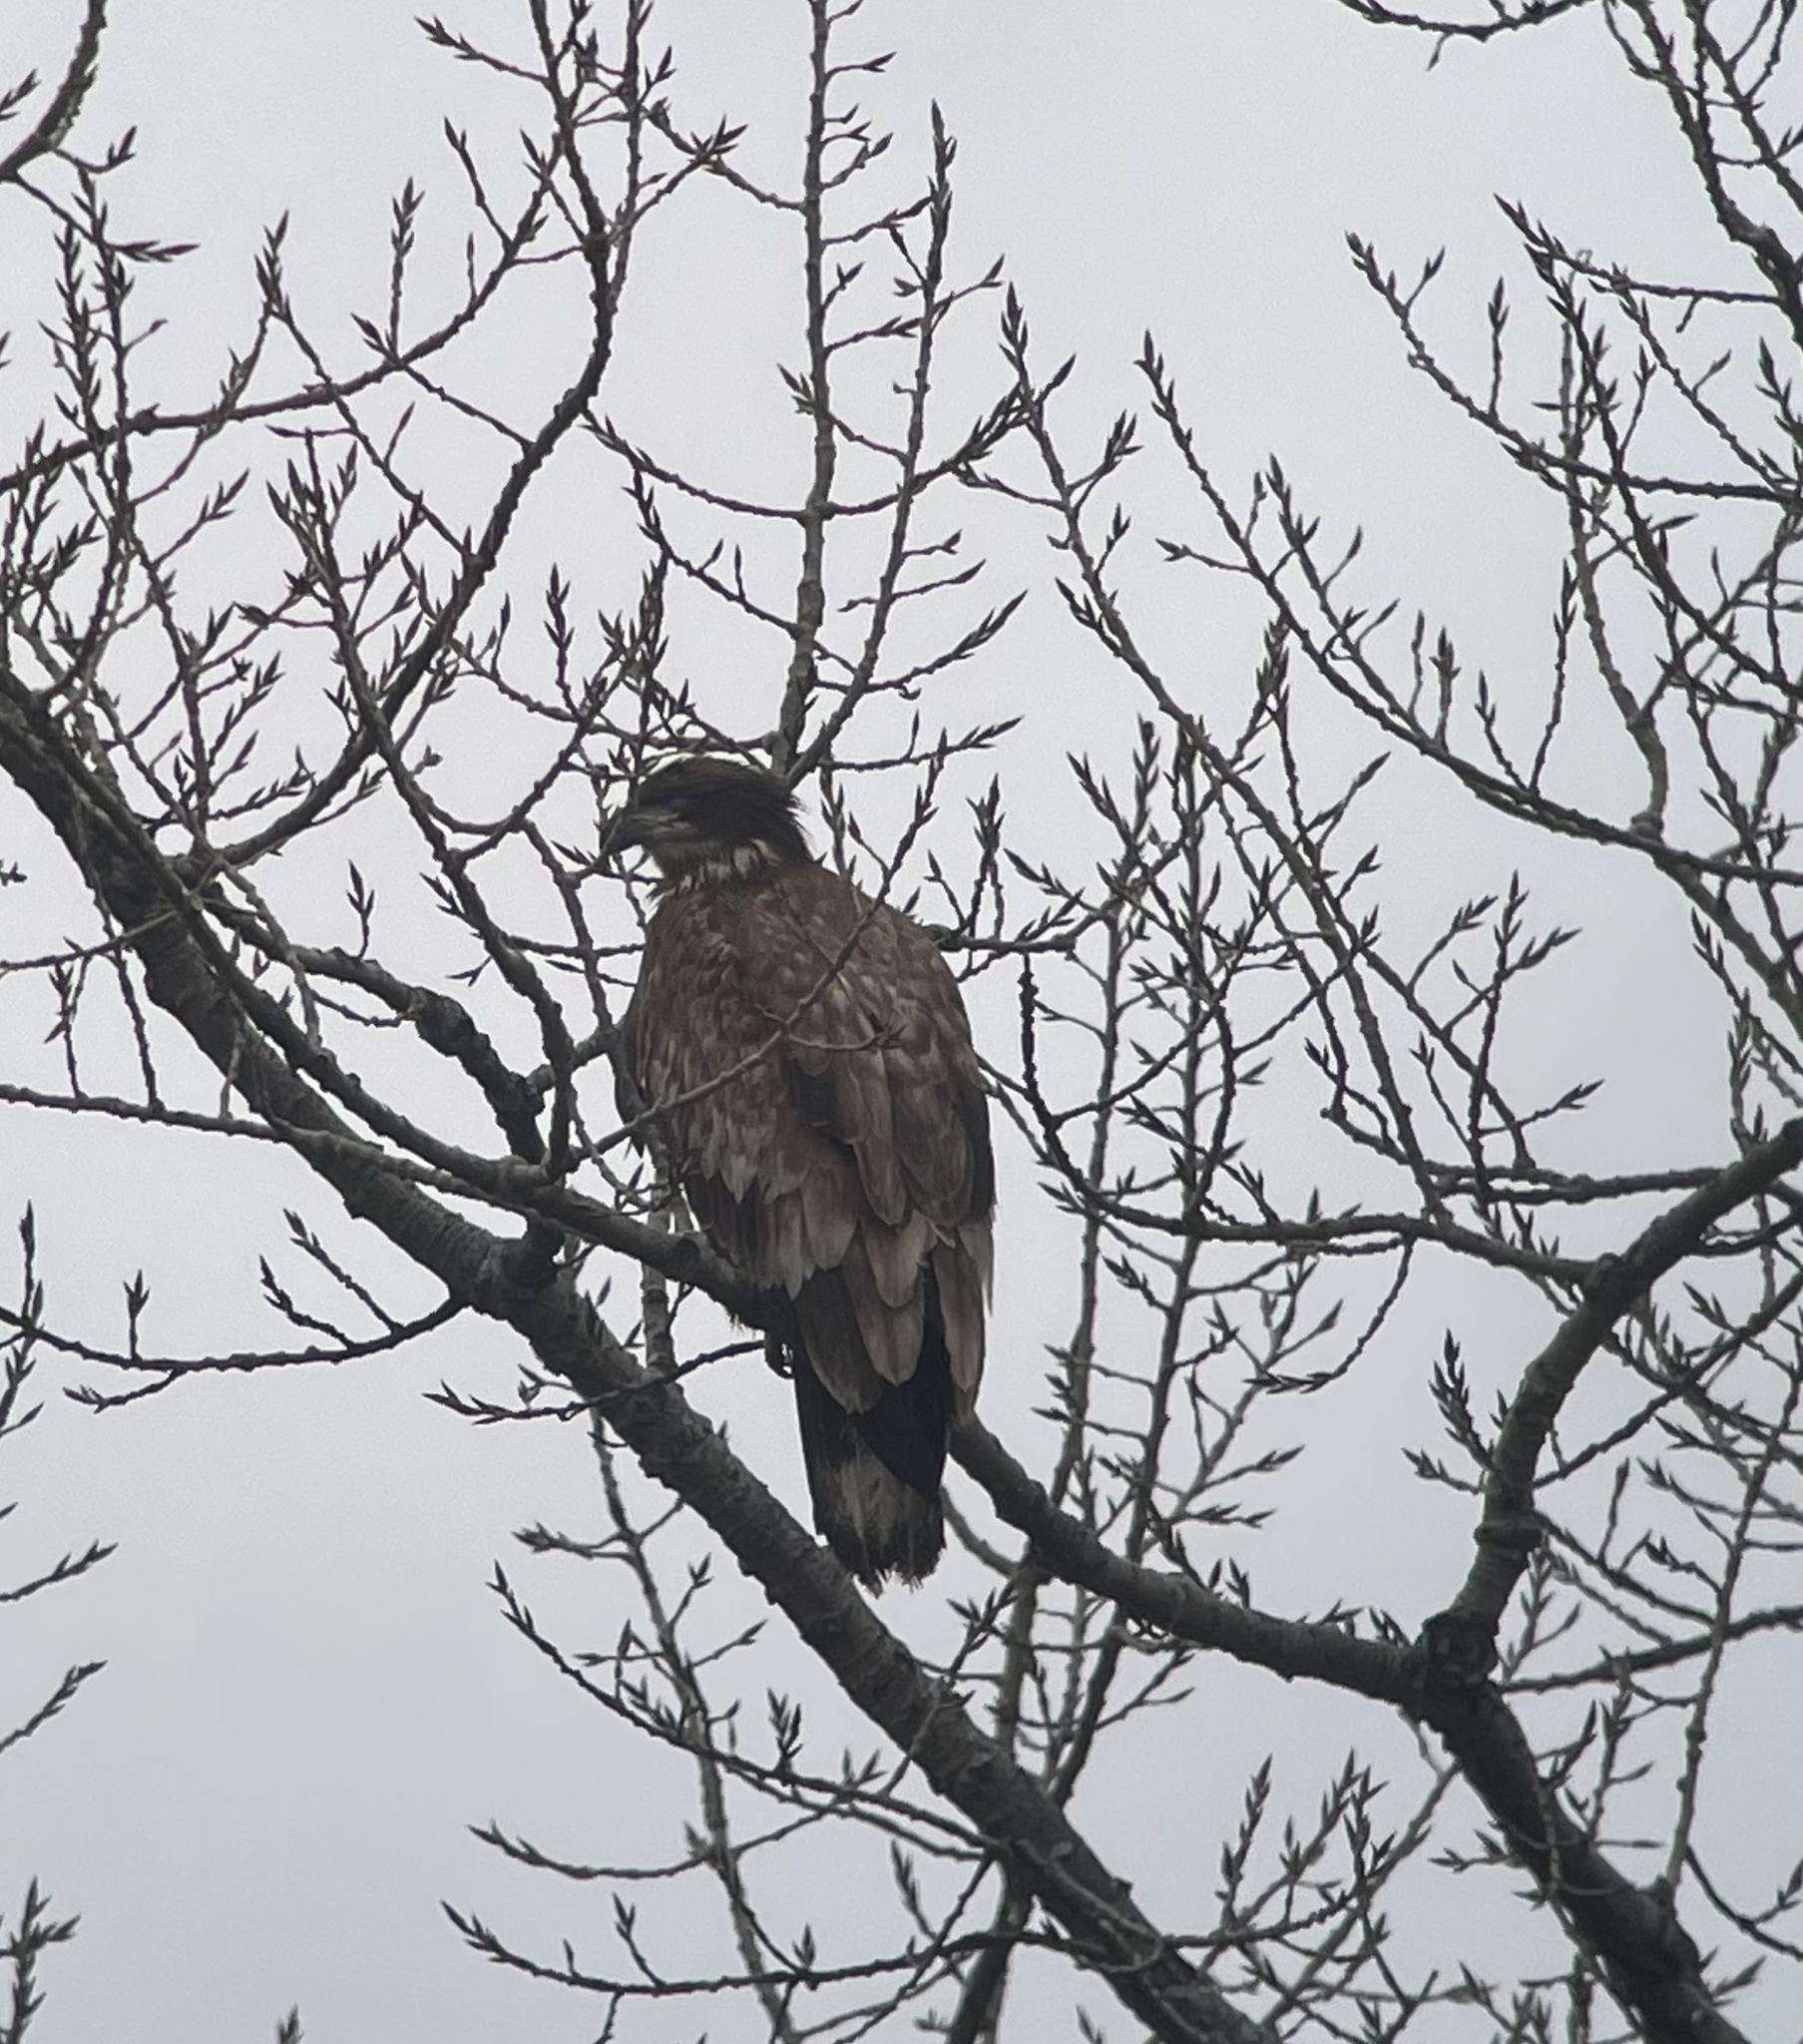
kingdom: Animalia
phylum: Chordata
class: Aves
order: Accipitriformes
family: Accipitridae
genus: Haliaeetus
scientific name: Haliaeetus leucocephalus
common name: Bald eagle
